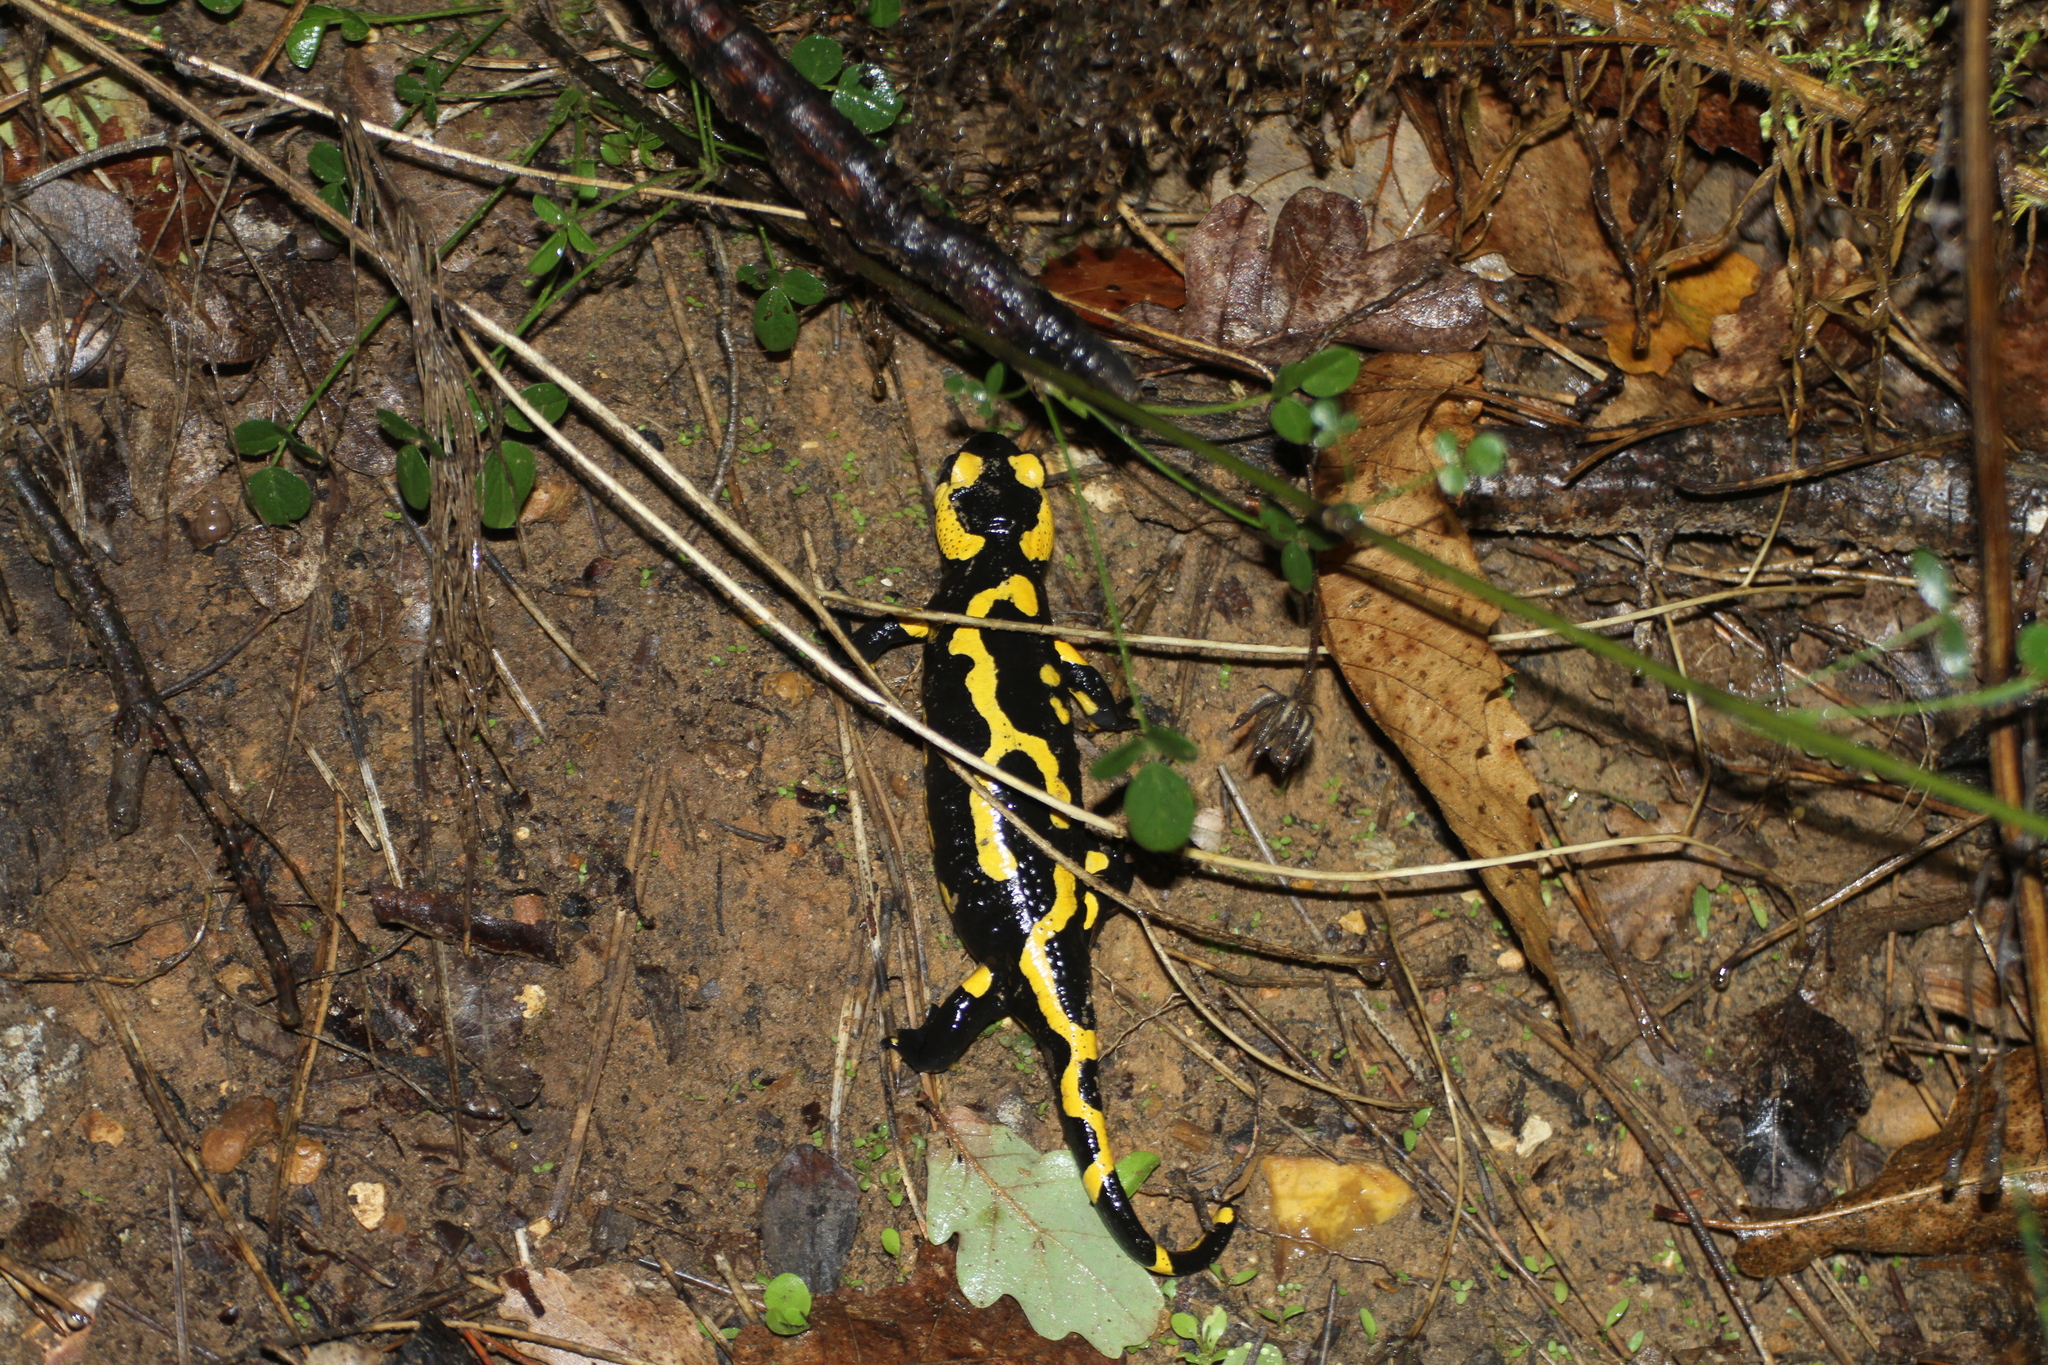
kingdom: Animalia
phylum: Chordata
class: Amphibia
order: Caudata
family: Salamandridae
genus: Salamandra
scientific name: Salamandra salamandra
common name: Fire salamander
